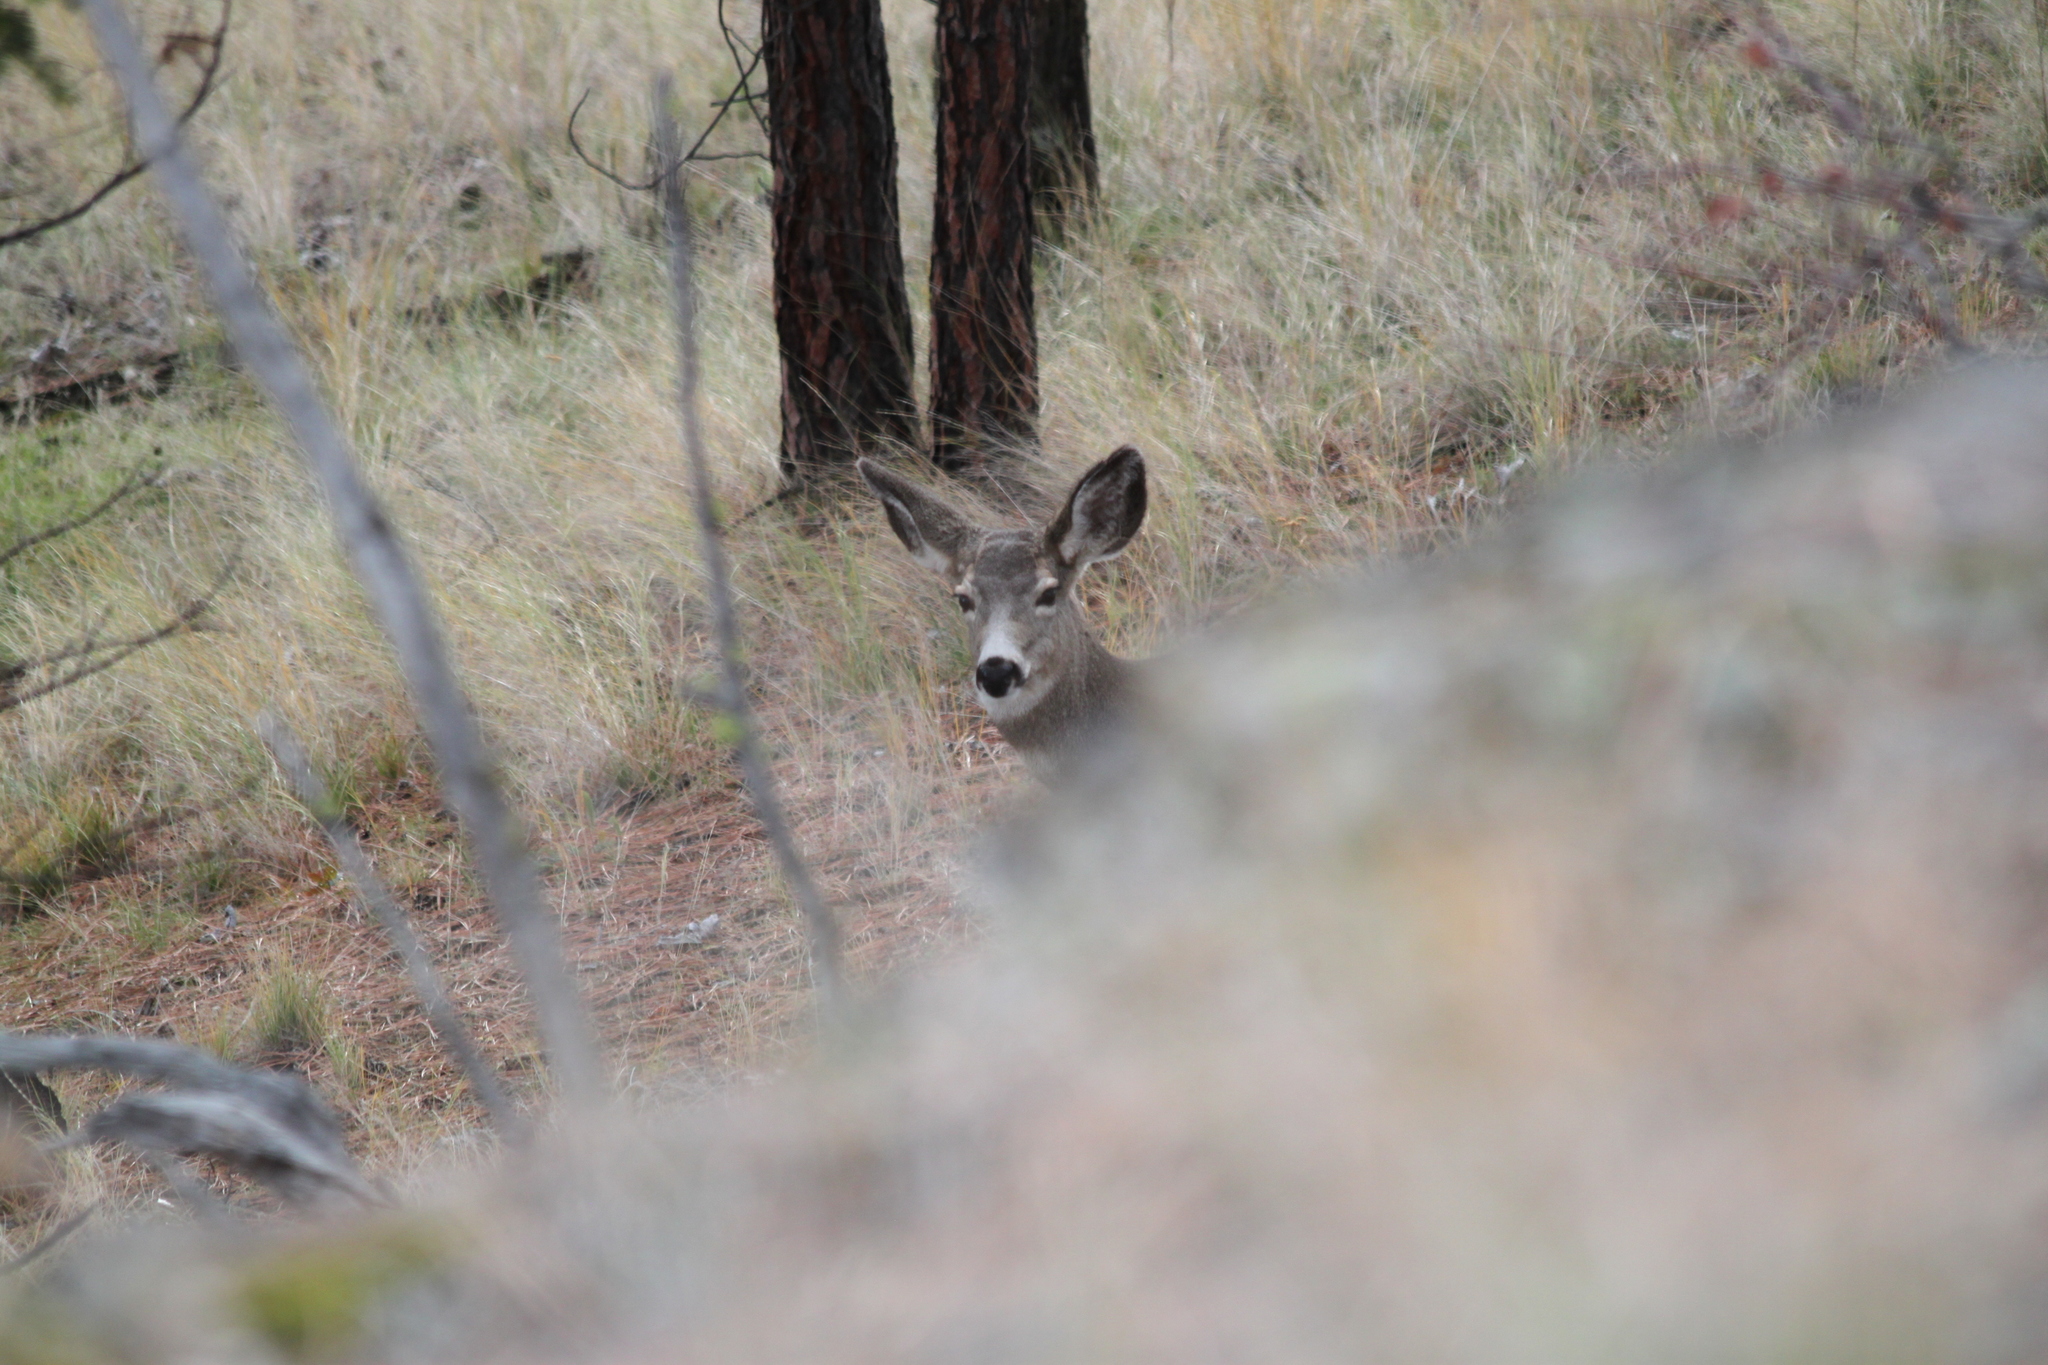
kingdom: Animalia
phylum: Chordata
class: Mammalia
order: Artiodactyla
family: Cervidae
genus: Odocoileus
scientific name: Odocoileus hemionus
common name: Mule deer
